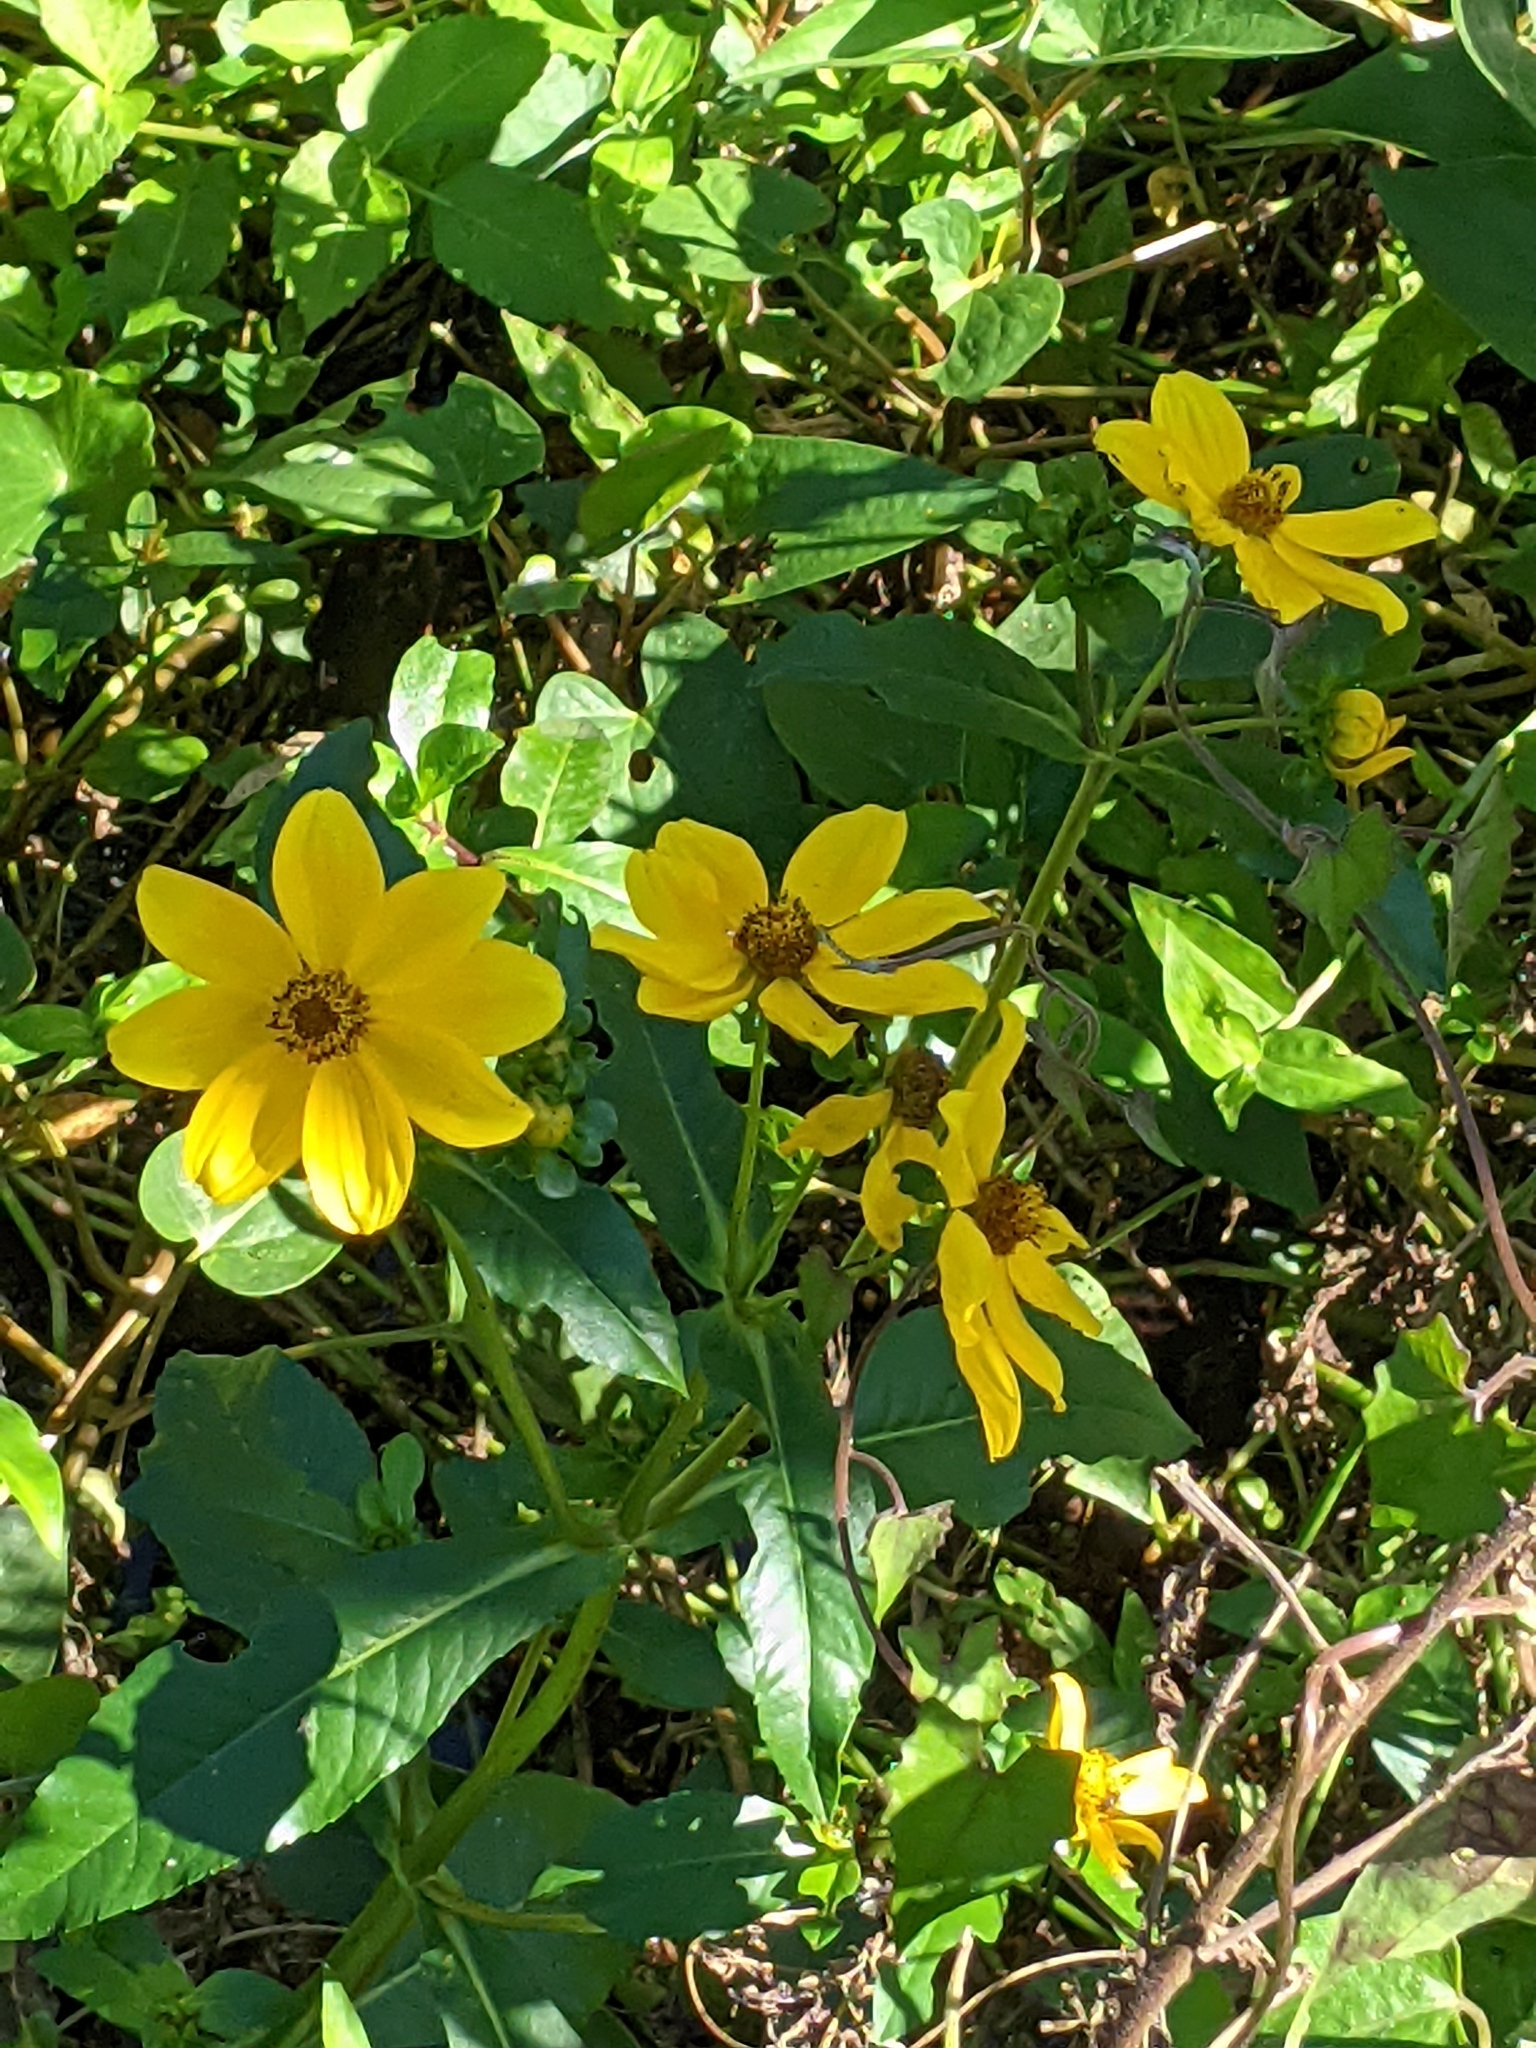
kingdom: Plantae
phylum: Tracheophyta
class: Magnoliopsida
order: Asterales
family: Asteraceae
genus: Bidens
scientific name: Bidens laevis
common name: Larger bur-marigold
